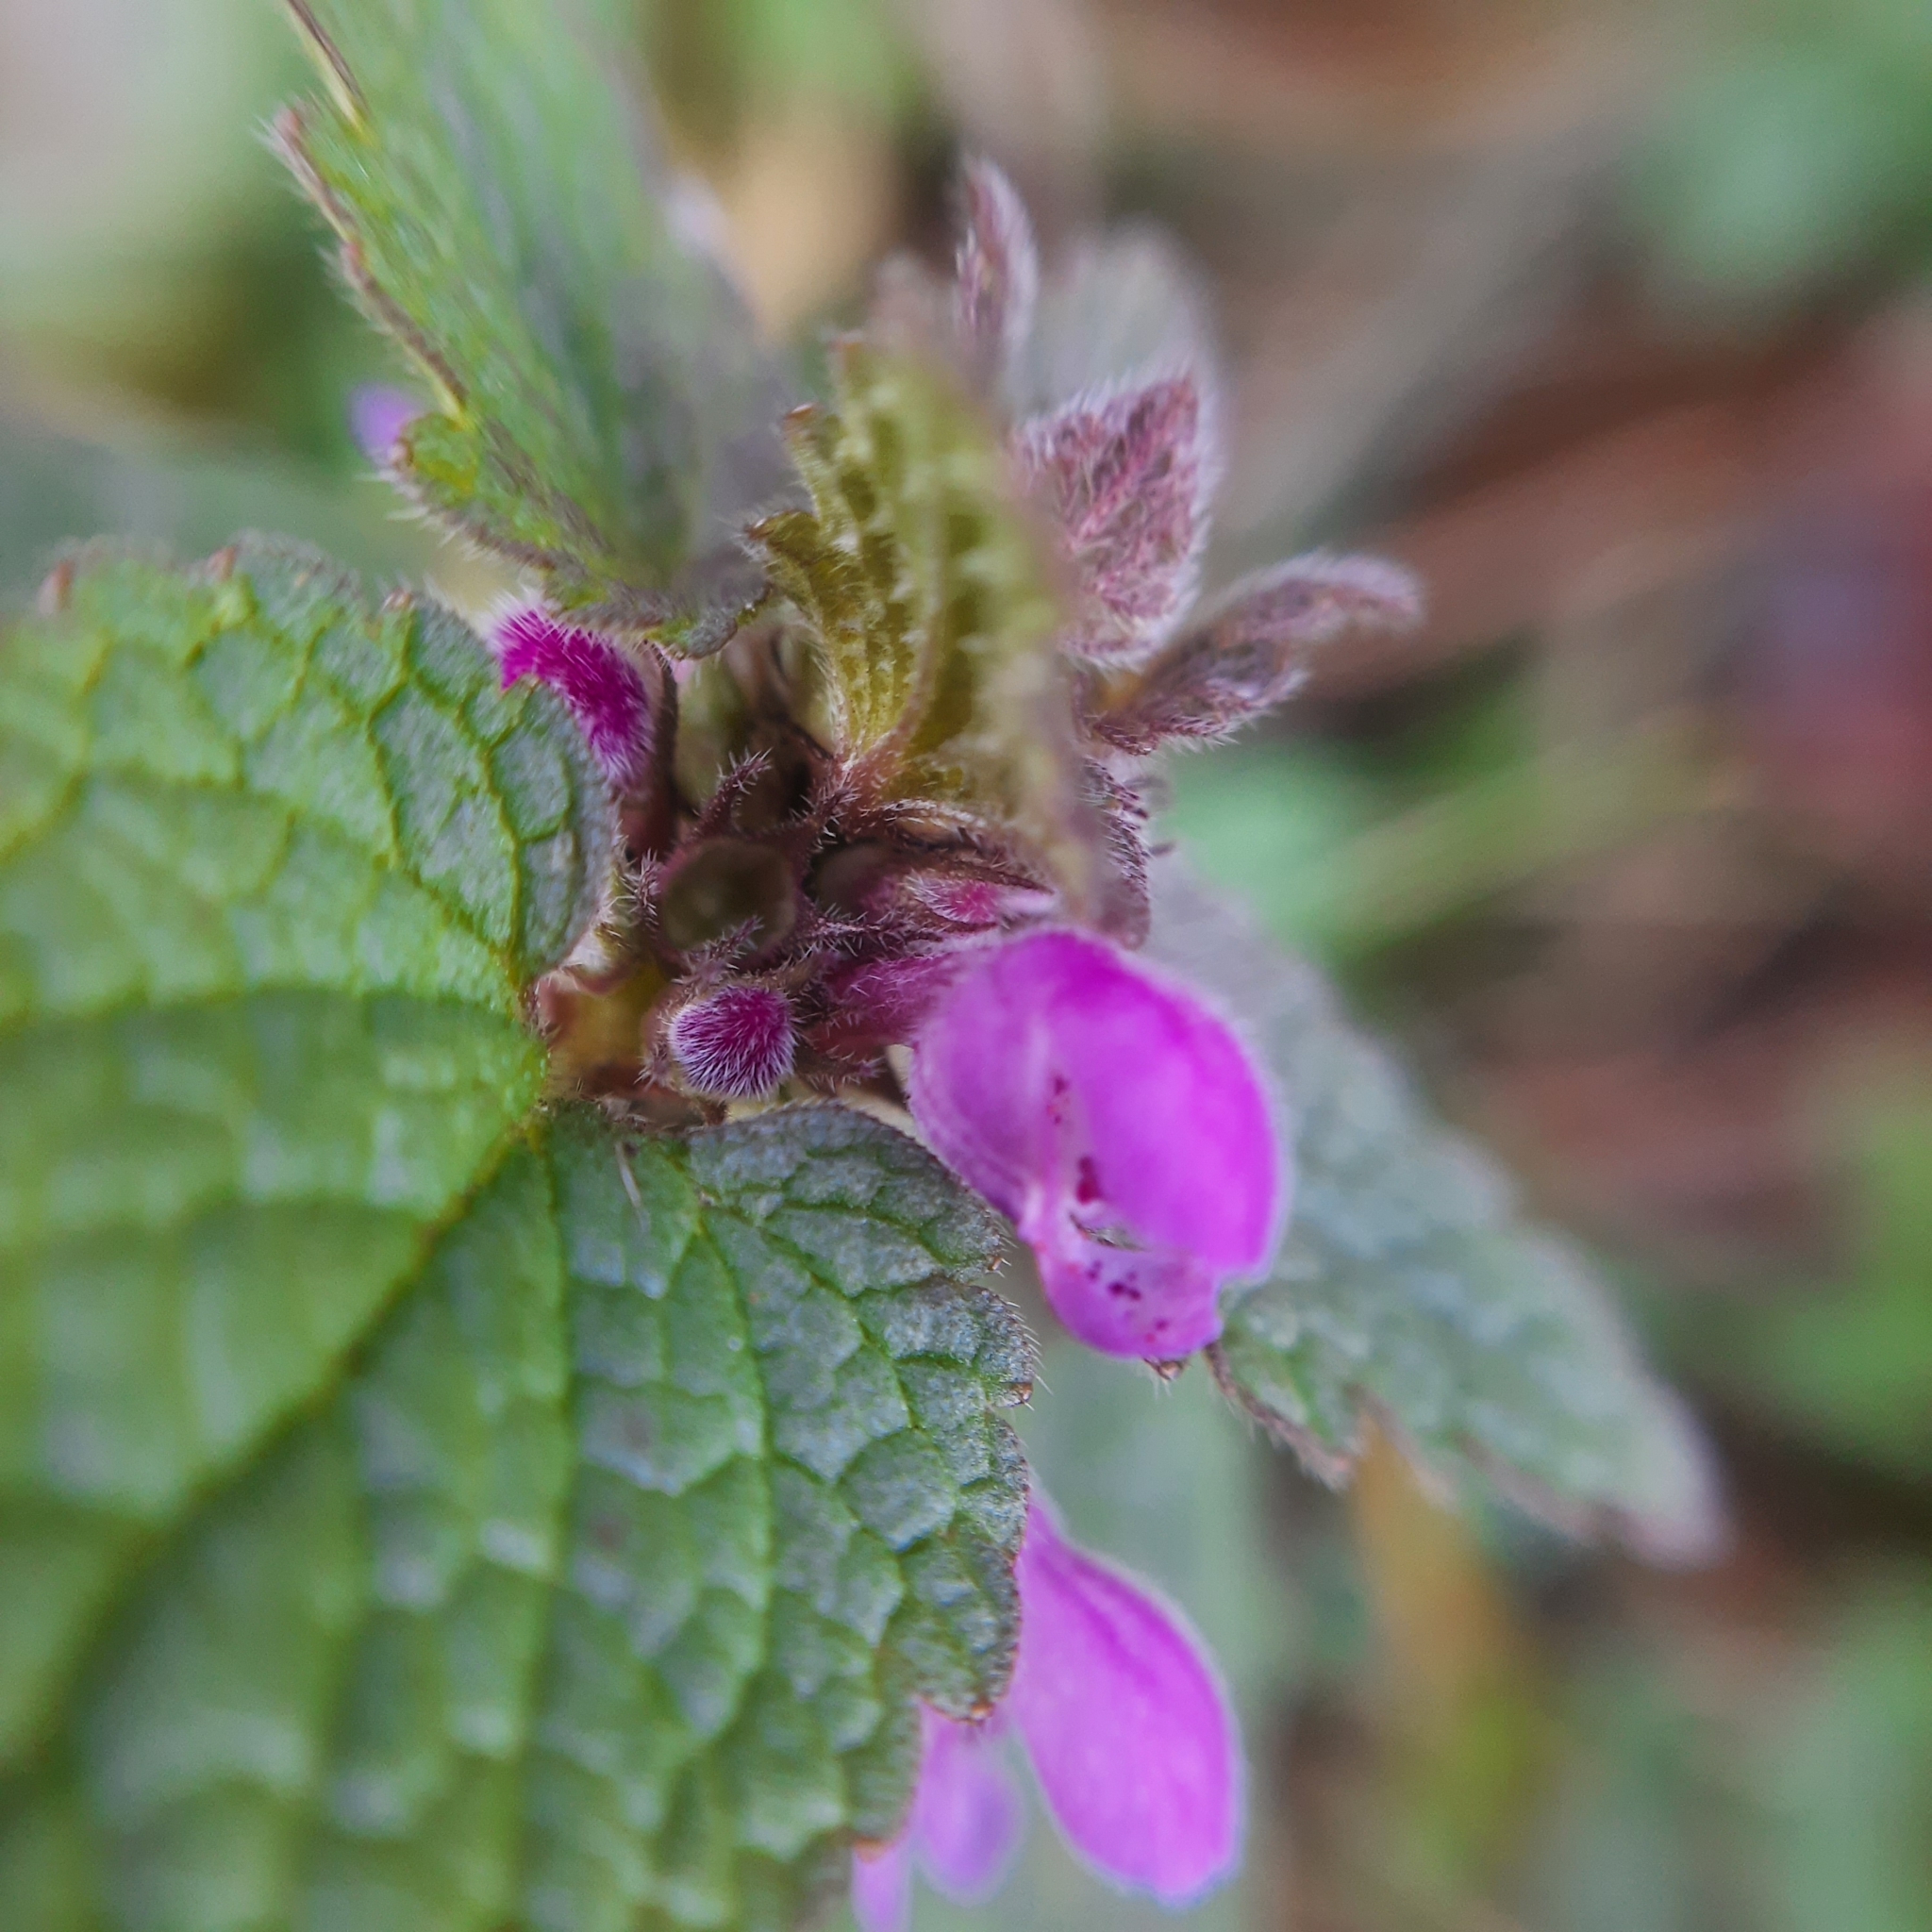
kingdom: Plantae
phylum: Tracheophyta
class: Magnoliopsida
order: Lamiales
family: Lamiaceae
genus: Lamium
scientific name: Lamium purpureum
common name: Red dead-nettle
